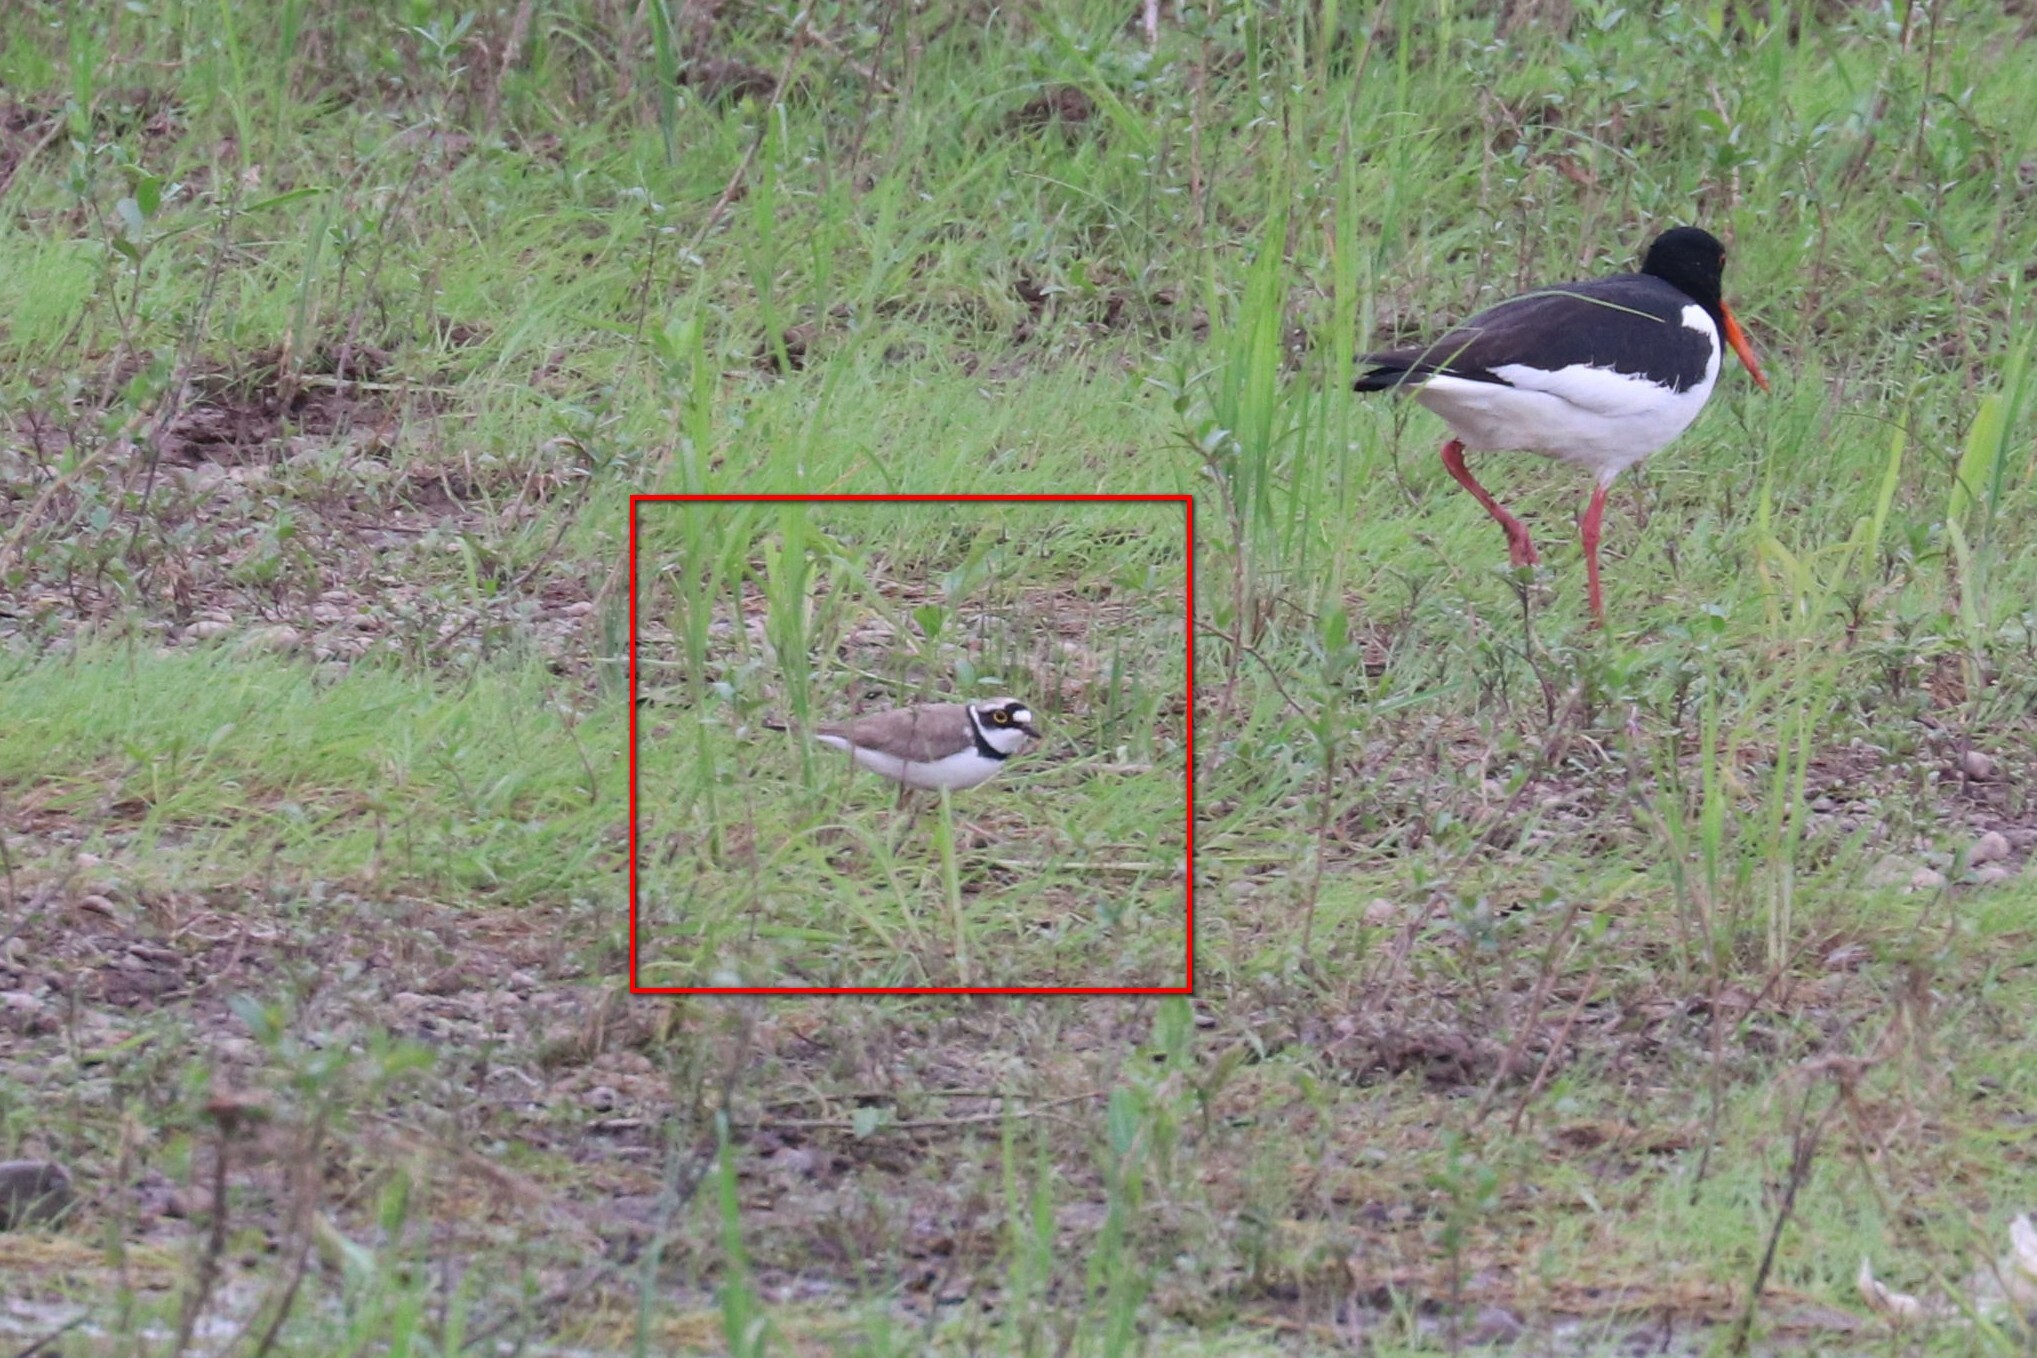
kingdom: Animalia
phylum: Chordata
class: Aves
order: Charadriiformes
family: Charadriidae
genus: Charadrius
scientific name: Charadrius dubius
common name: Little ringed plover
